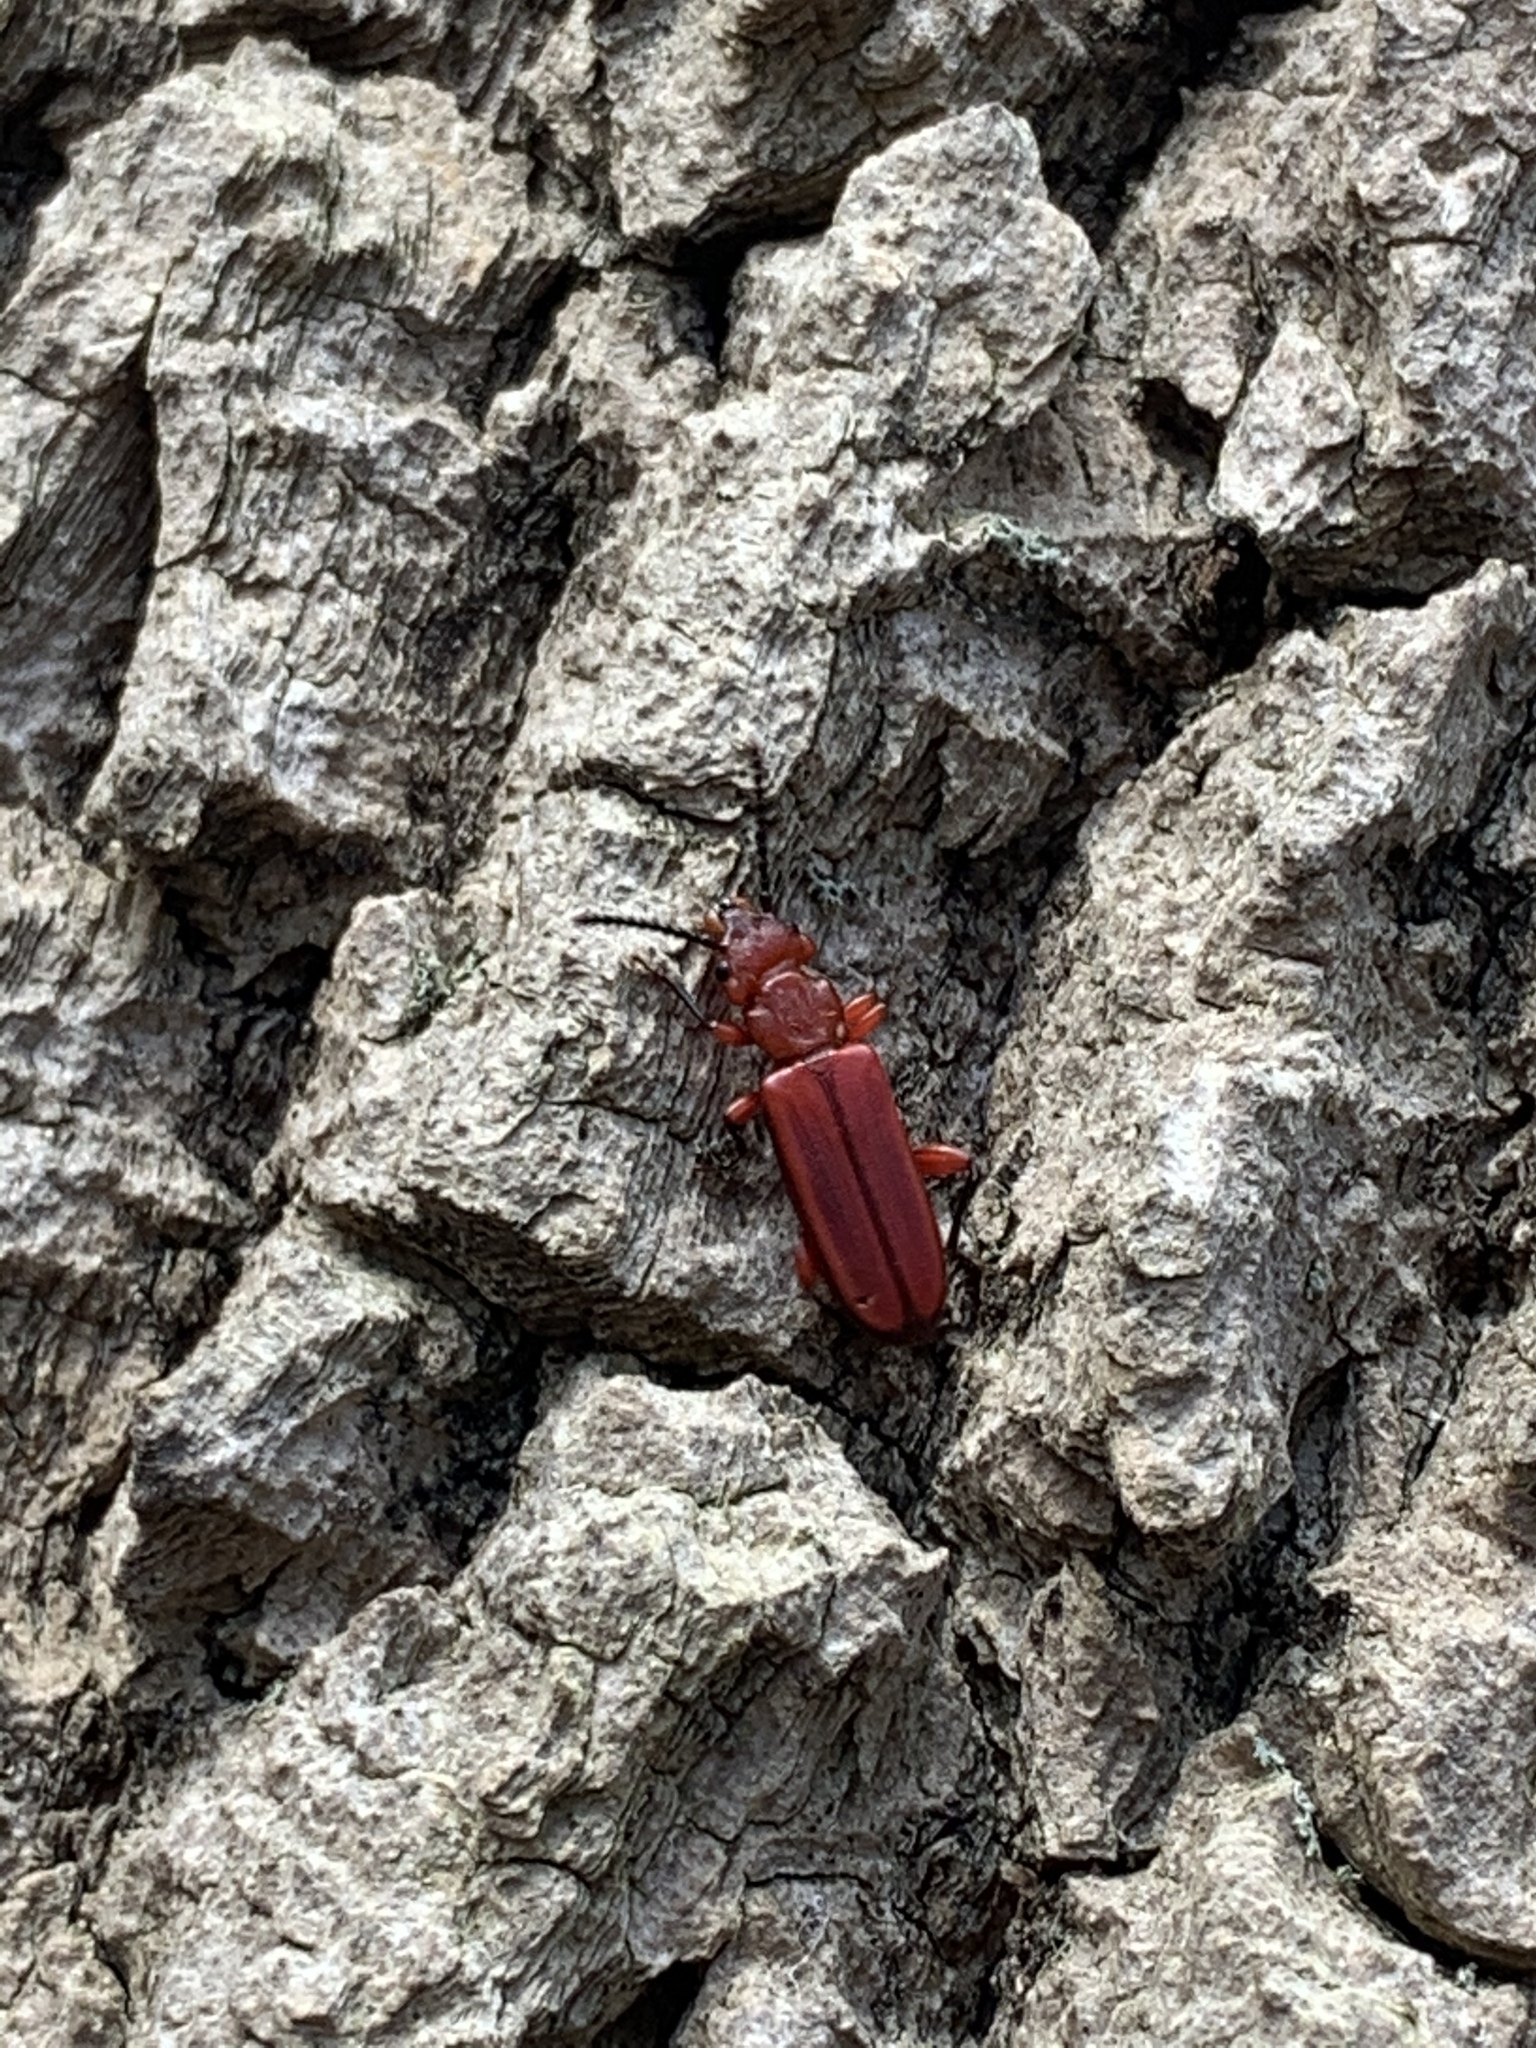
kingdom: Animalia
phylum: Arthropoda
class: Insecta
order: Coleoptera
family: Cucujidae
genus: Cucujus
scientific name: Cucujus clavipes
